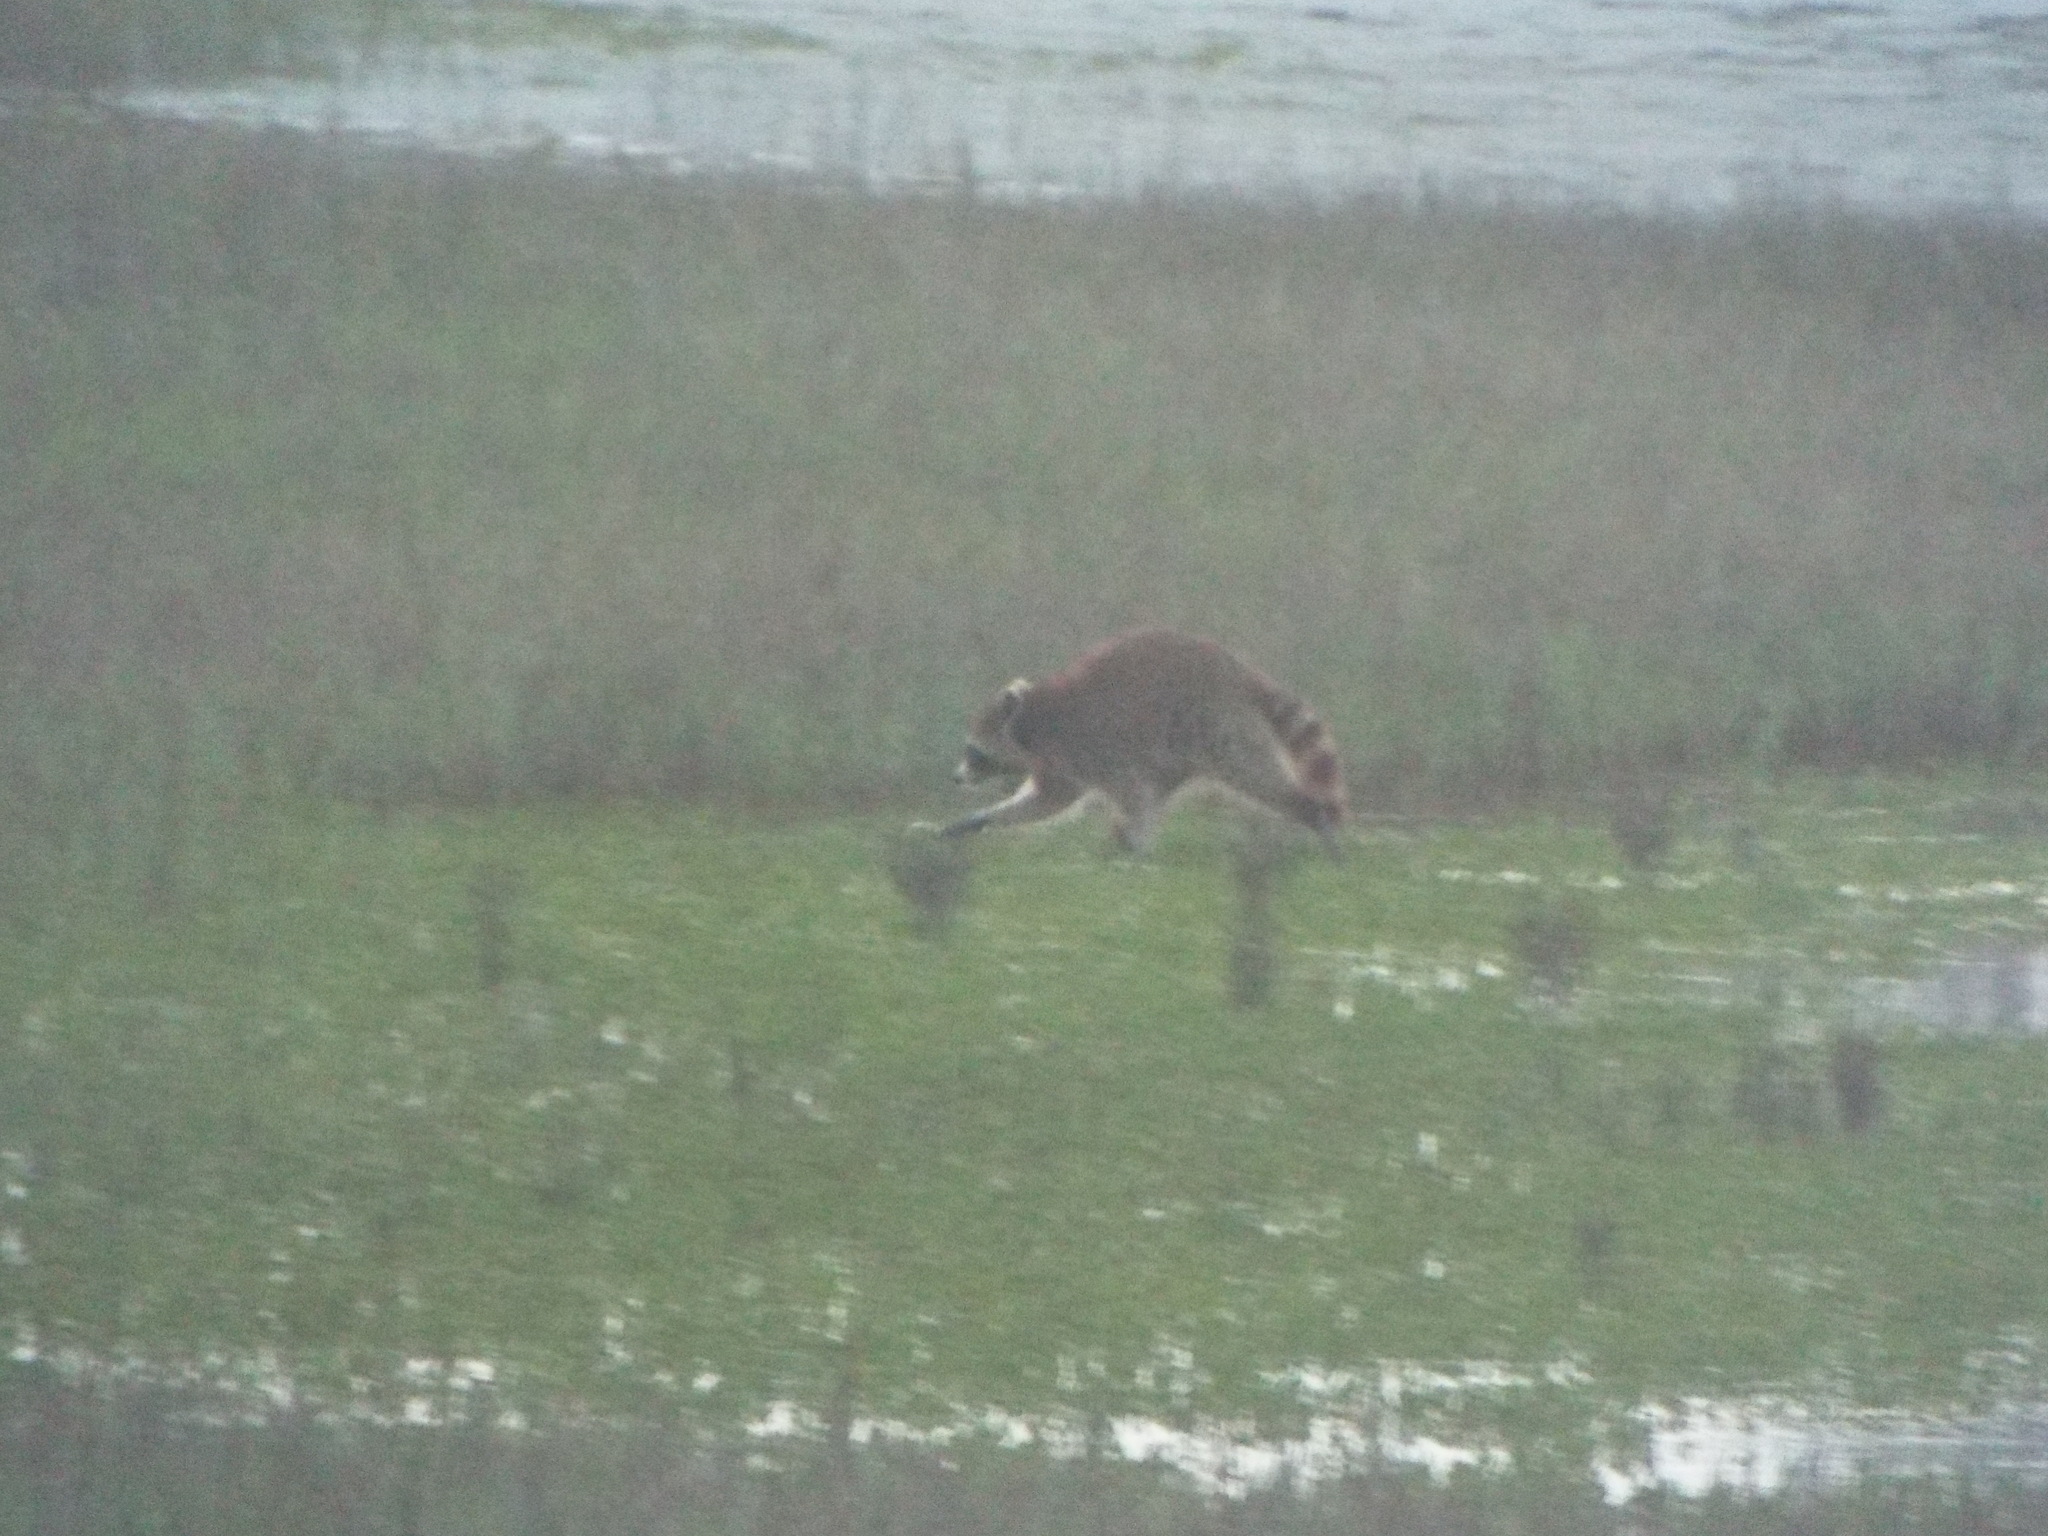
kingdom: Animalia
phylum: Chordata
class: Mammalia
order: Carnivora
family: Procyonidae
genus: Procyon
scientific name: Procyon lotor
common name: Raccoon
